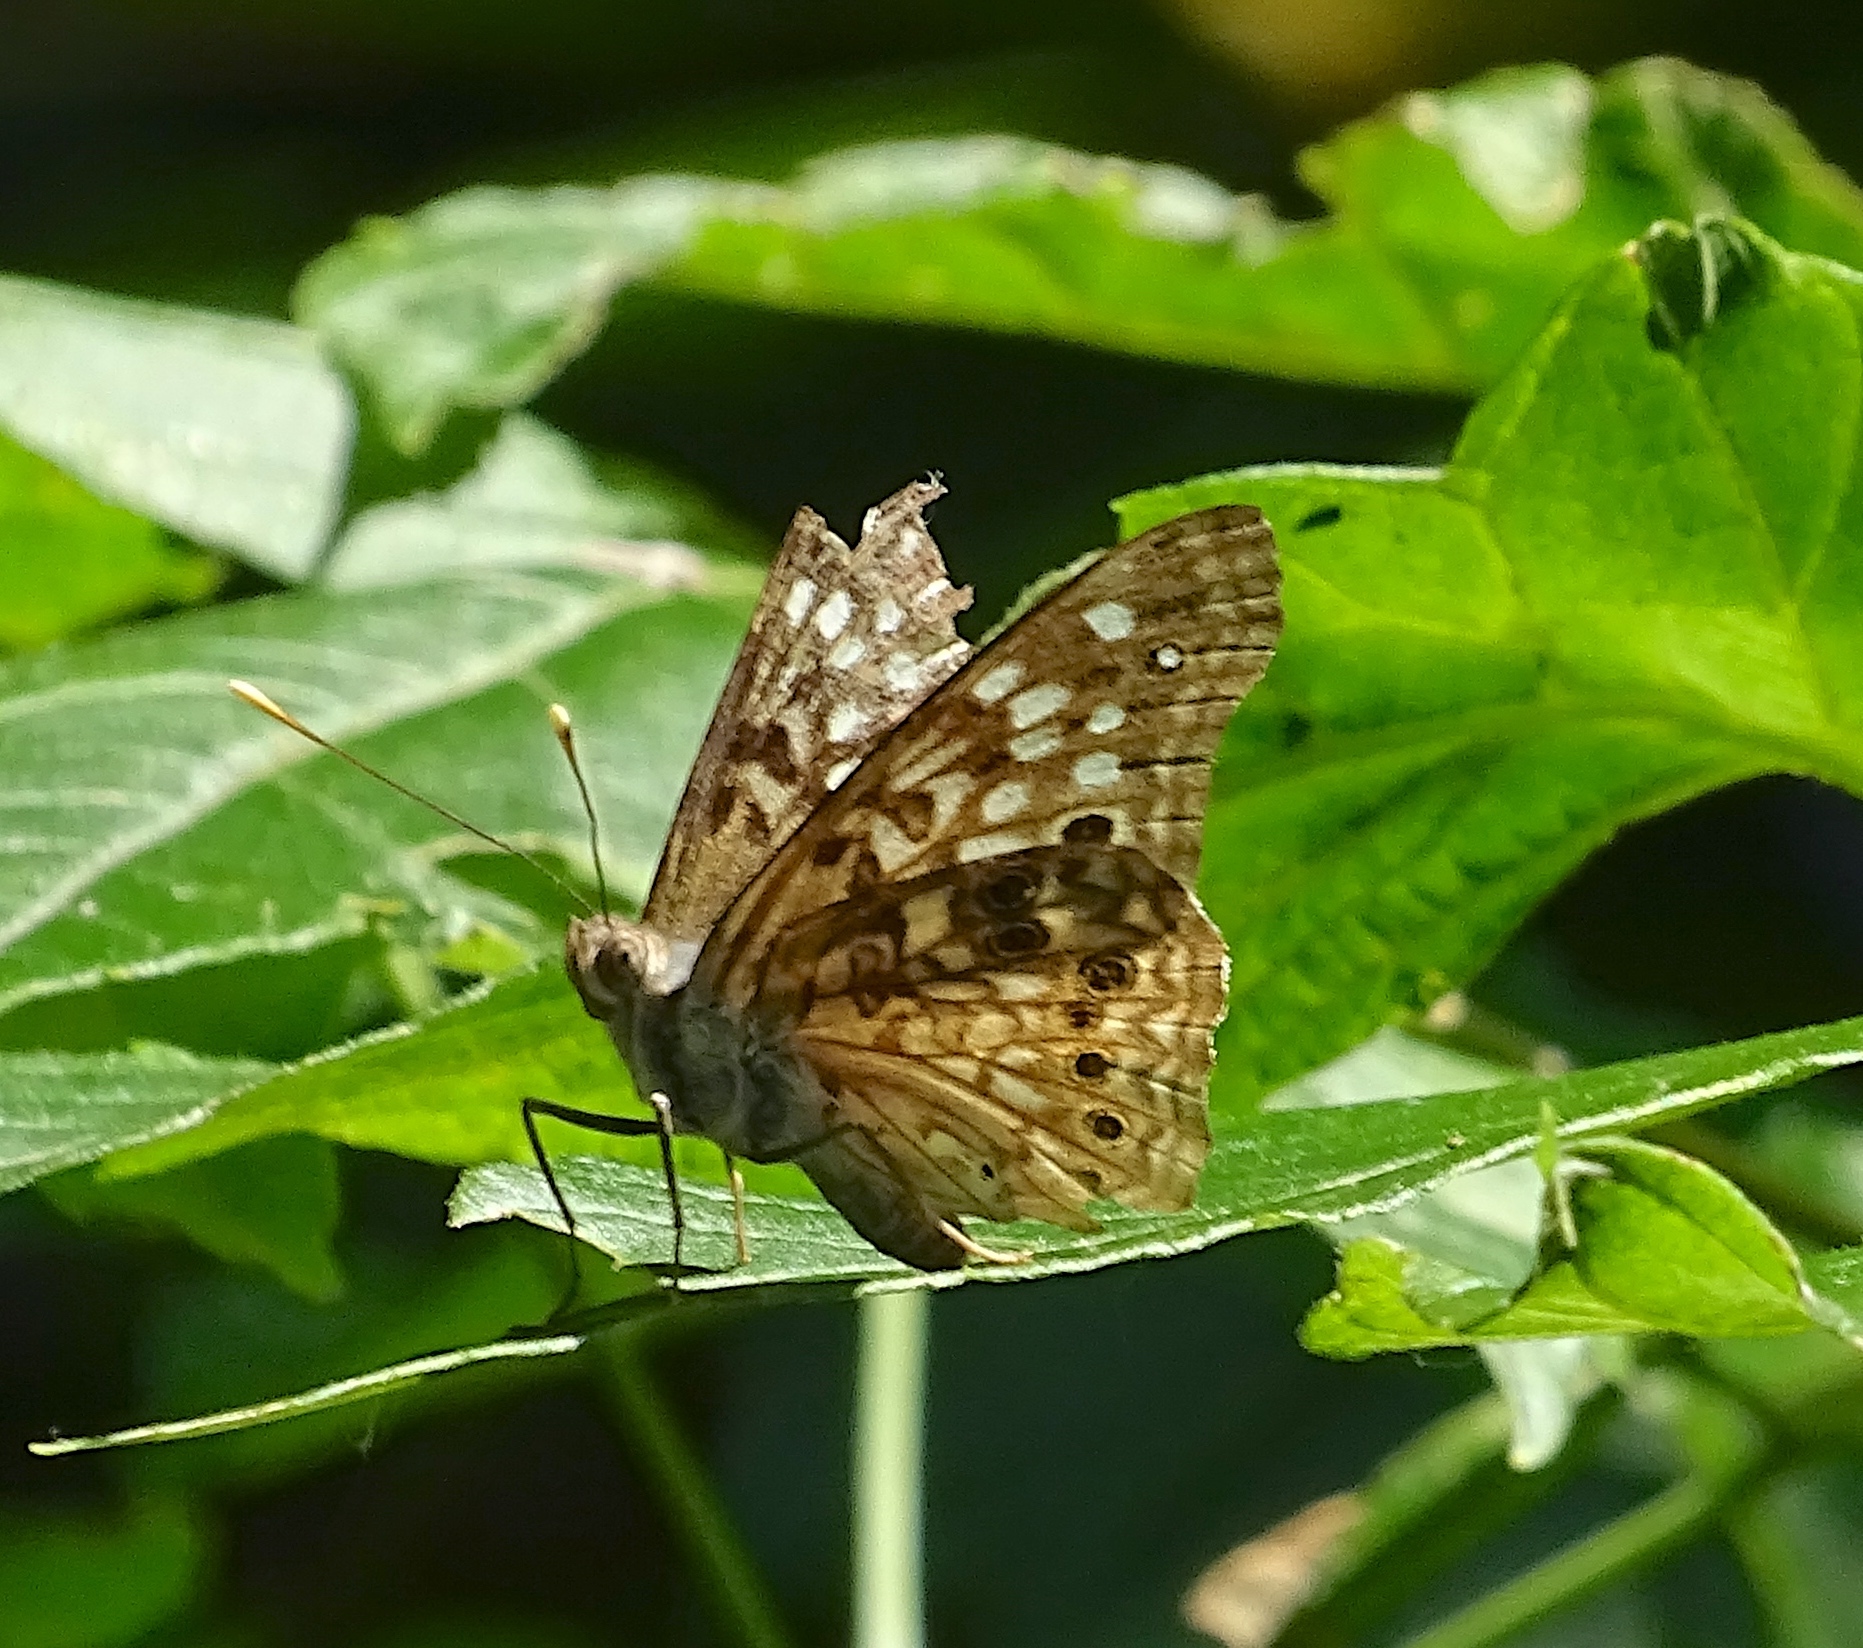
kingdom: Animalia
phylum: Arthropoda
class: Insecta
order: Lepidoptera
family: Nymphalidae
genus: Asterocampa
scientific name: Asterocampa celtis
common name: Hackberry emperor
